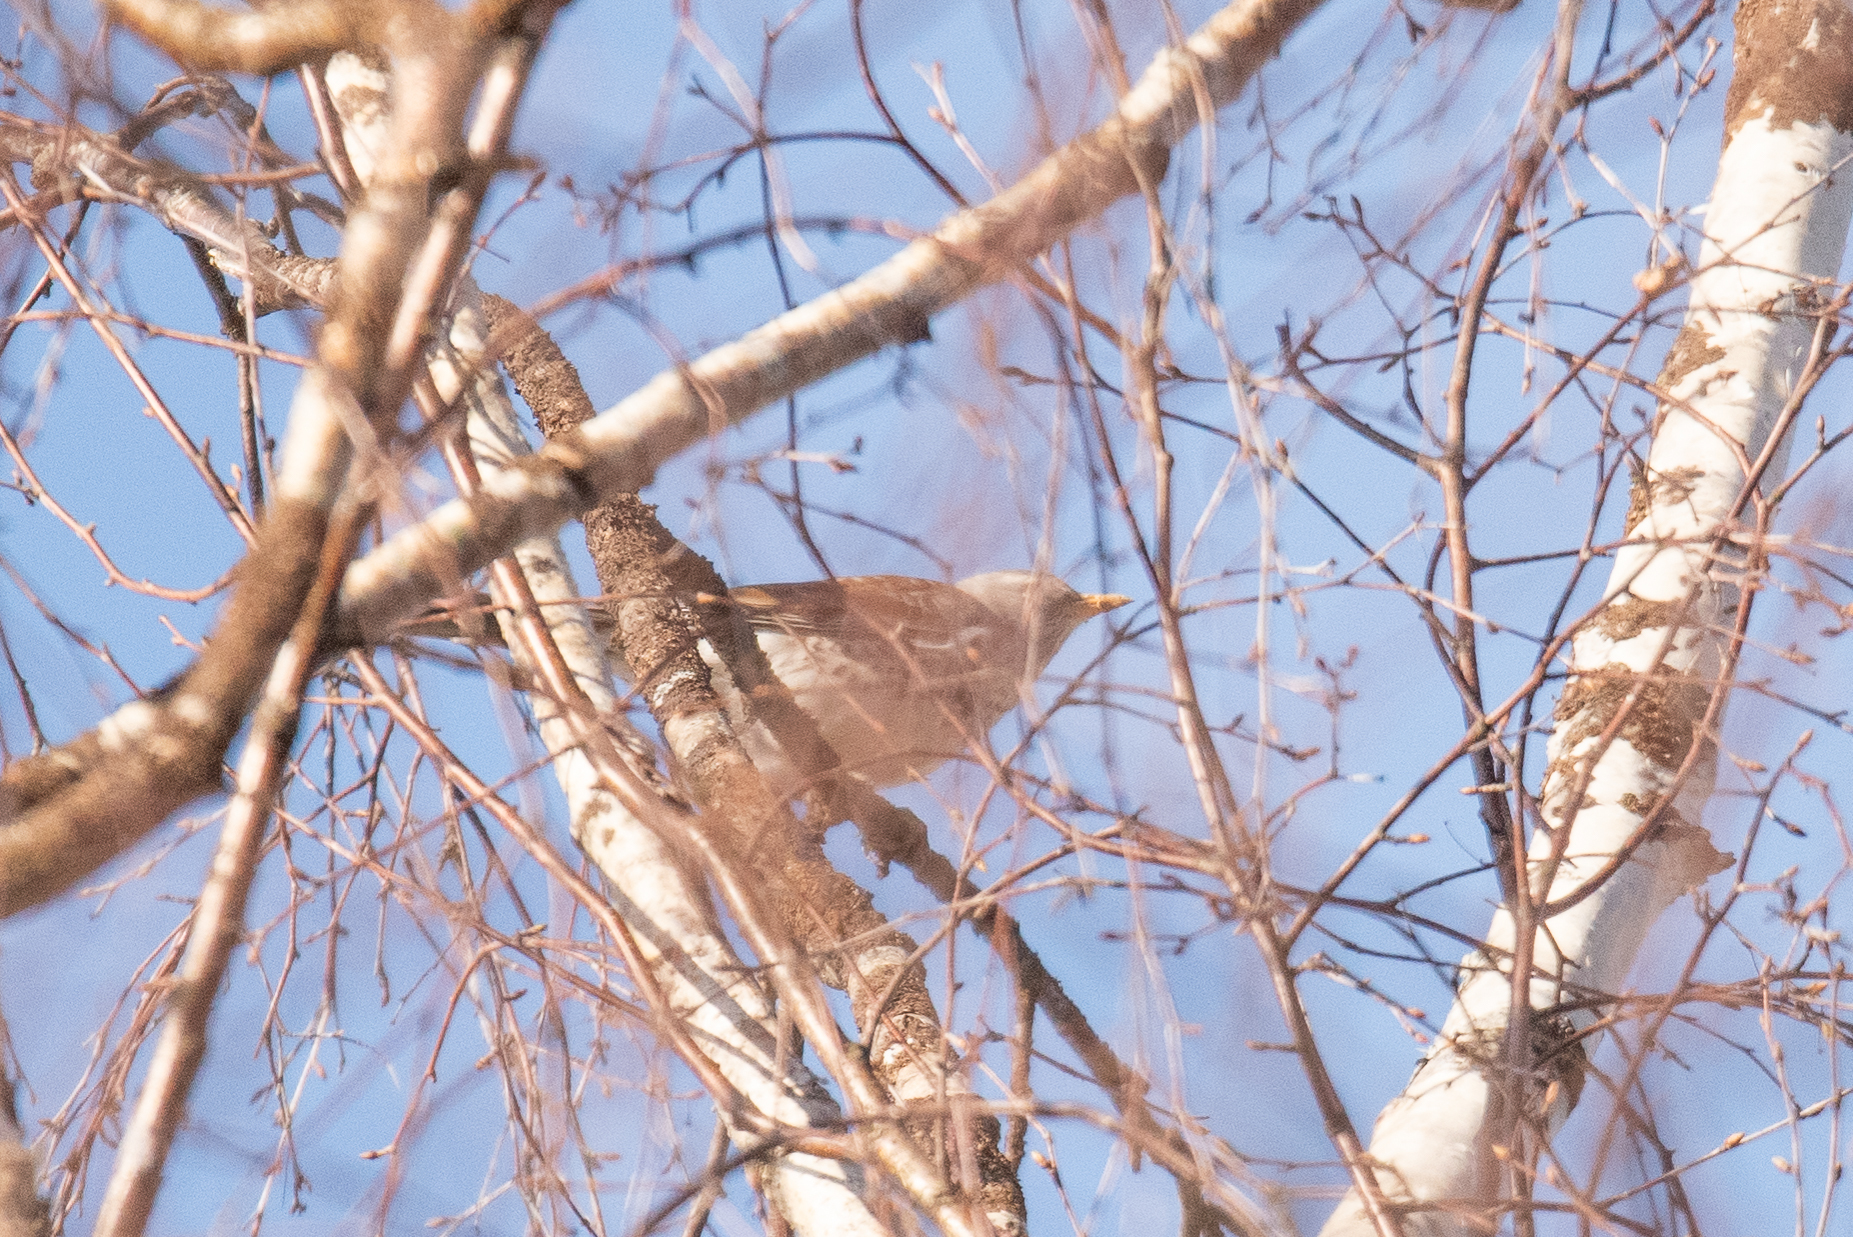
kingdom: Animalia
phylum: Chordata
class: Aves
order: Passeriformes
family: Turdidae
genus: Turdus
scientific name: Turdus pilaris
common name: Fieldfare
